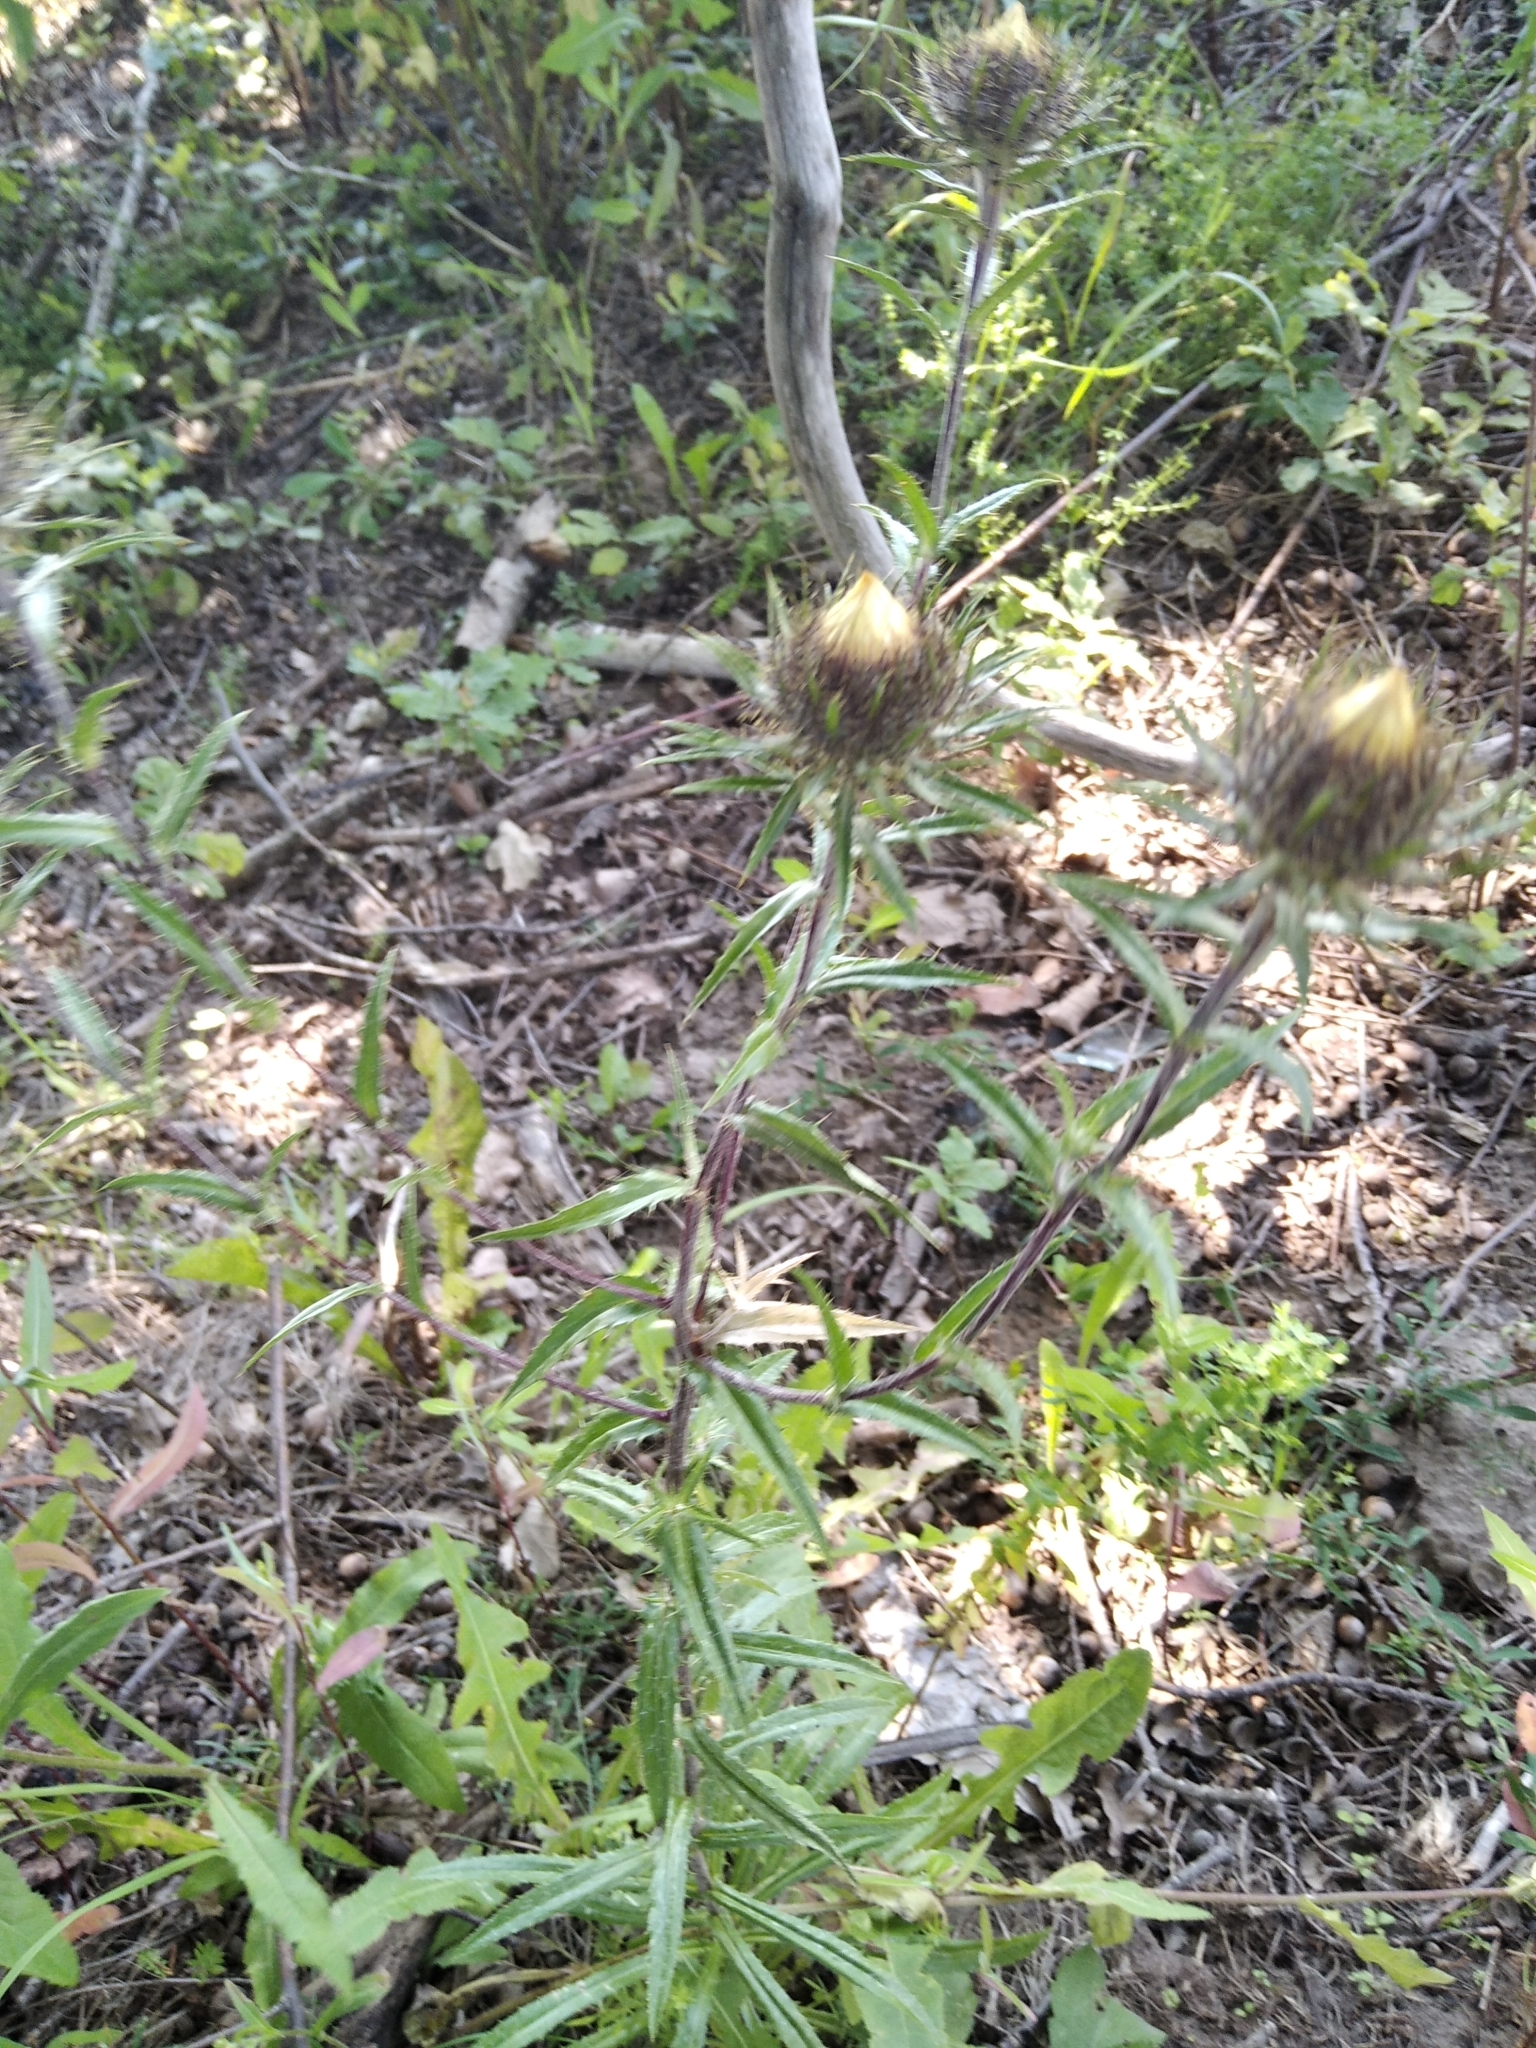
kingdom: Plantae
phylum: Tracheophyta
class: Magnoliopsida
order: Asterales
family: Asteraceae
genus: Carlina
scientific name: Carlina biebersteinii
